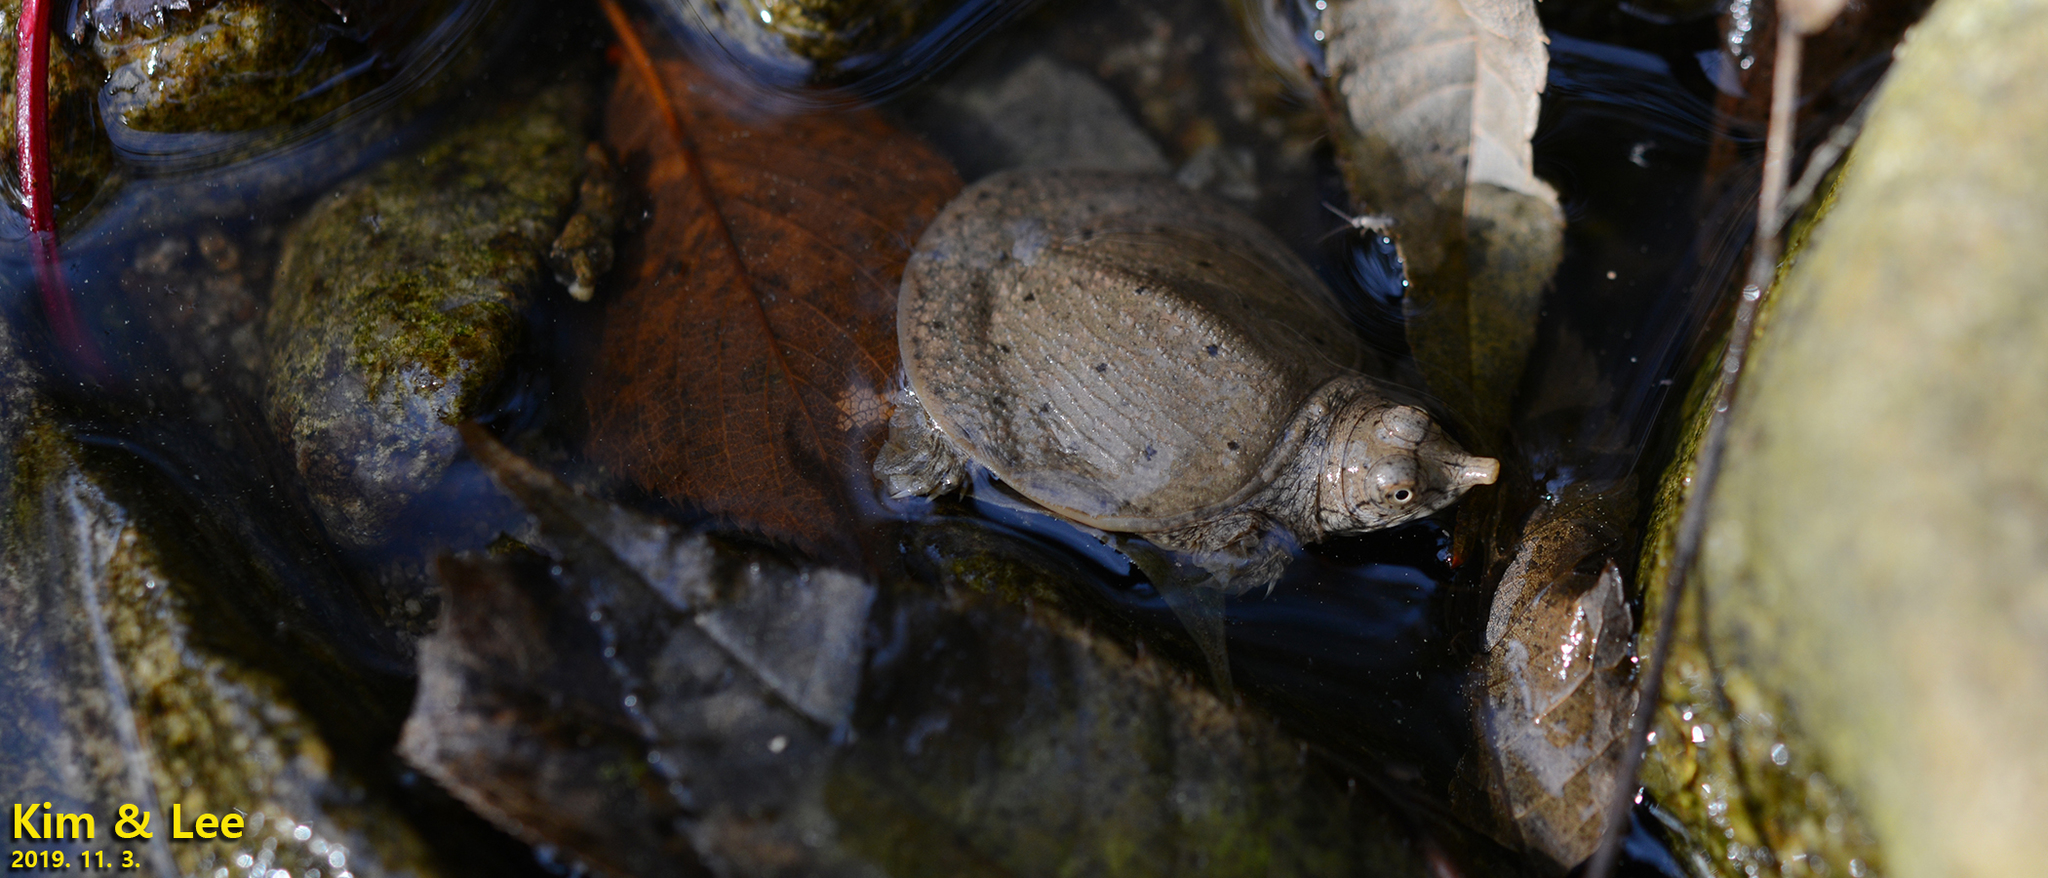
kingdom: Animalia
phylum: Chordata
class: Testudines
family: Trionychidae
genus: Pelodiscus
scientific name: Pelodiscus maackii
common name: Northern chinese softshell turtle
